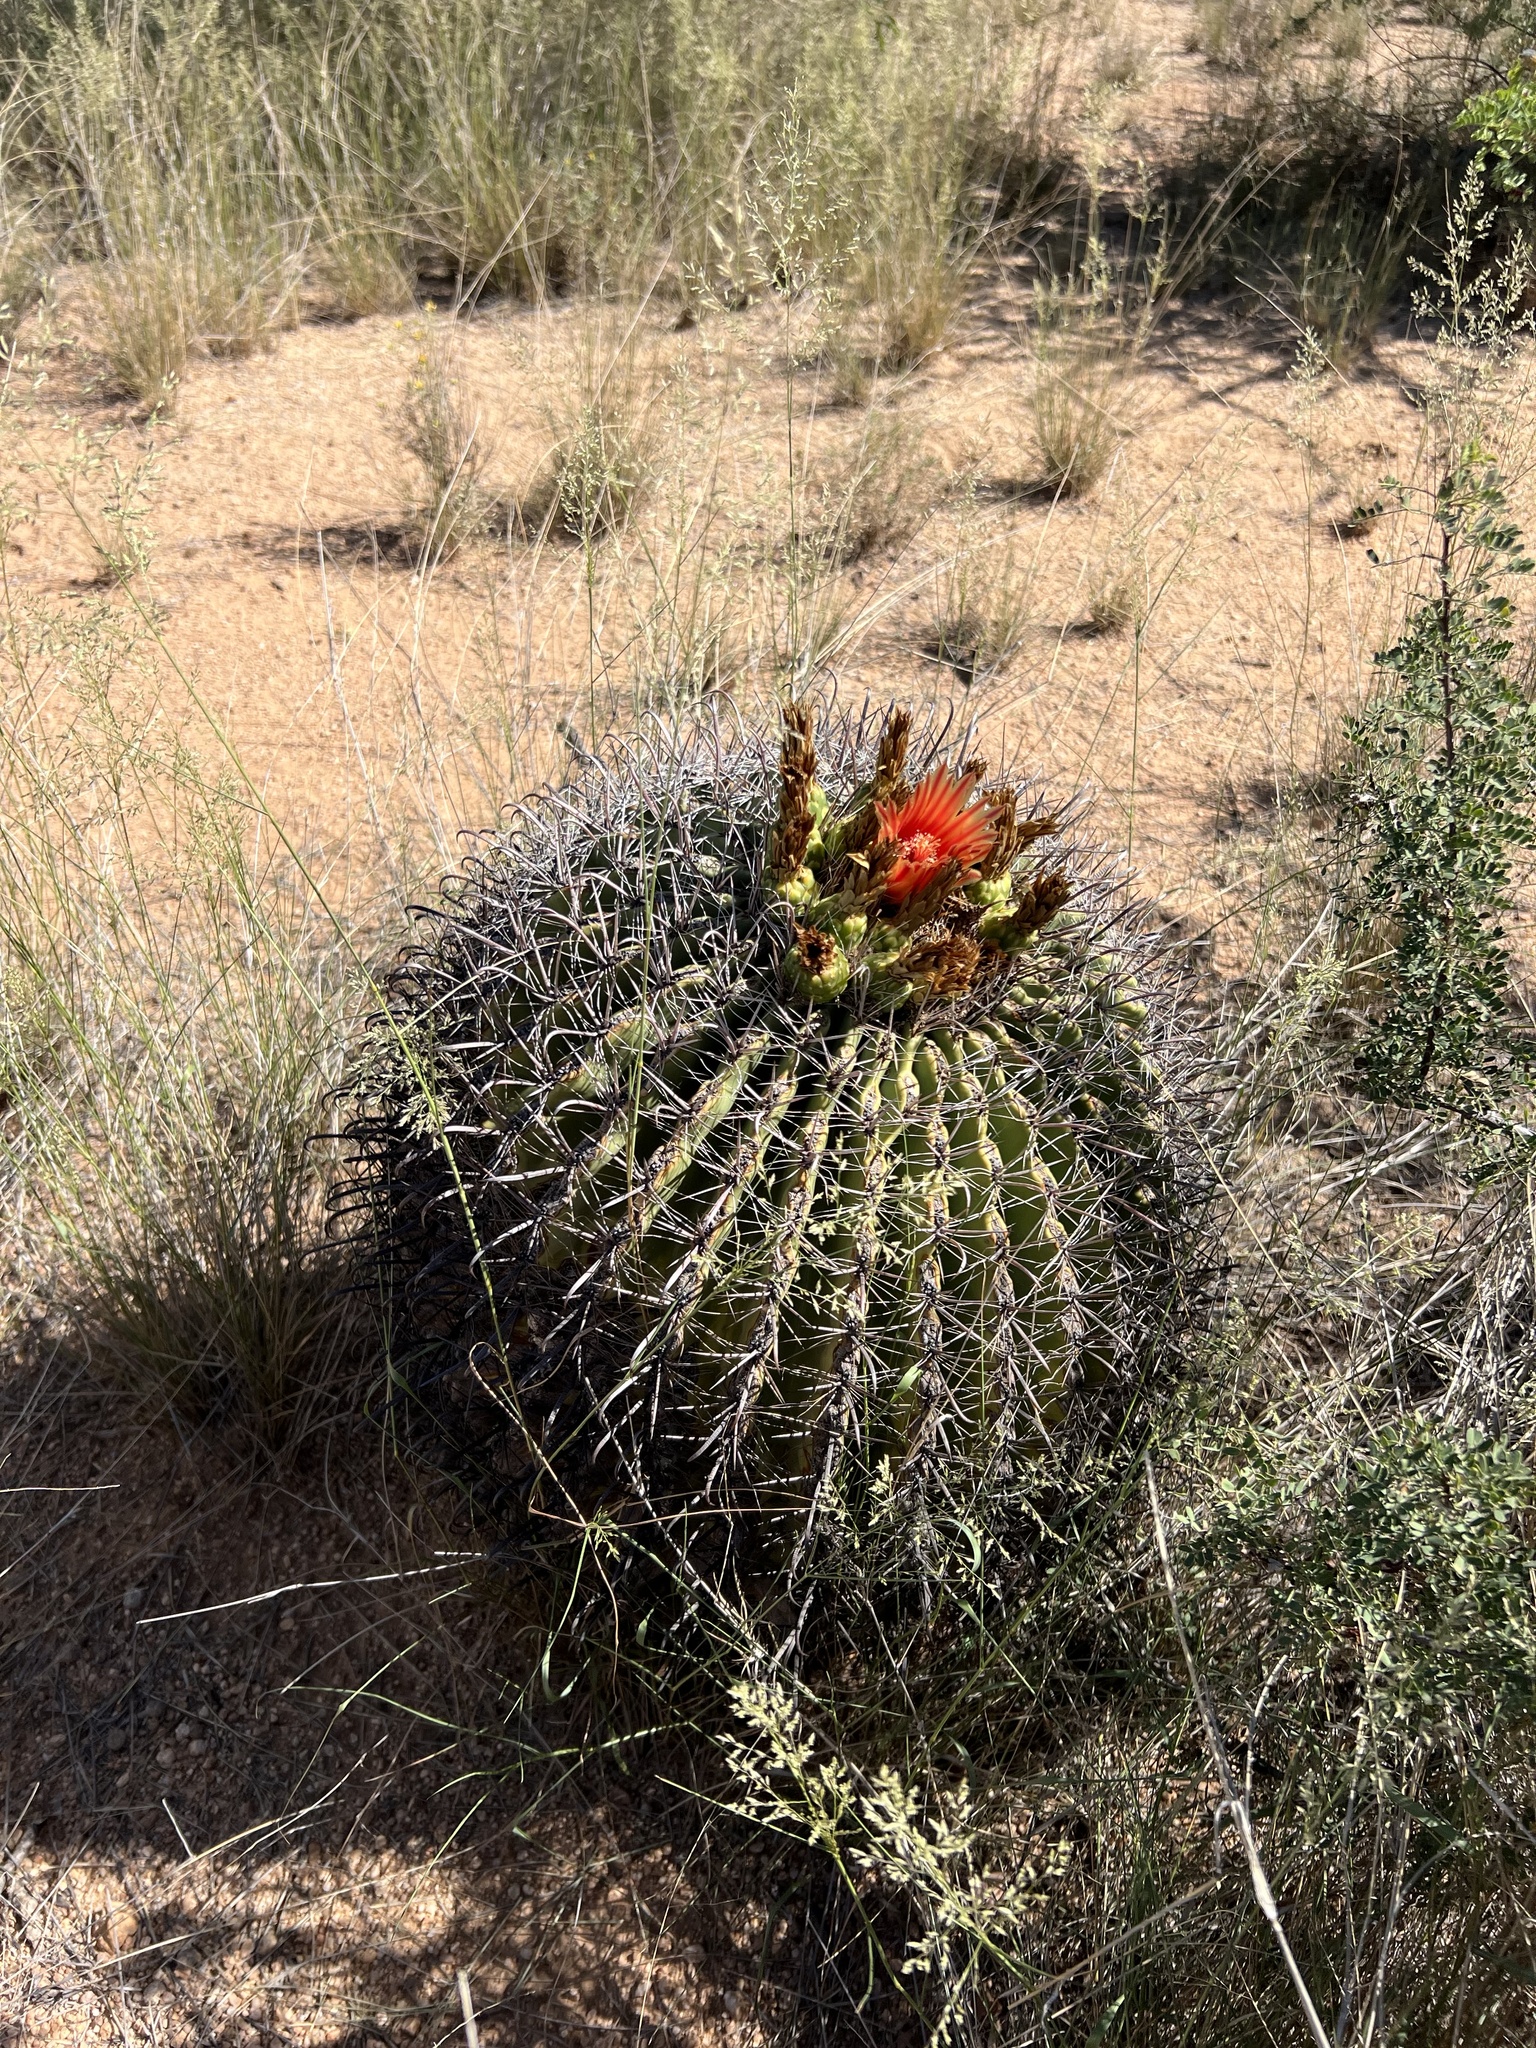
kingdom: Plantae
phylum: Tracheophyta
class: Magnoliopsida
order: Caryophyllales
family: Cactaceae
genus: Ferocactus
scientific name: Ferocactus wislizeni
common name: Candy barrel cactus
